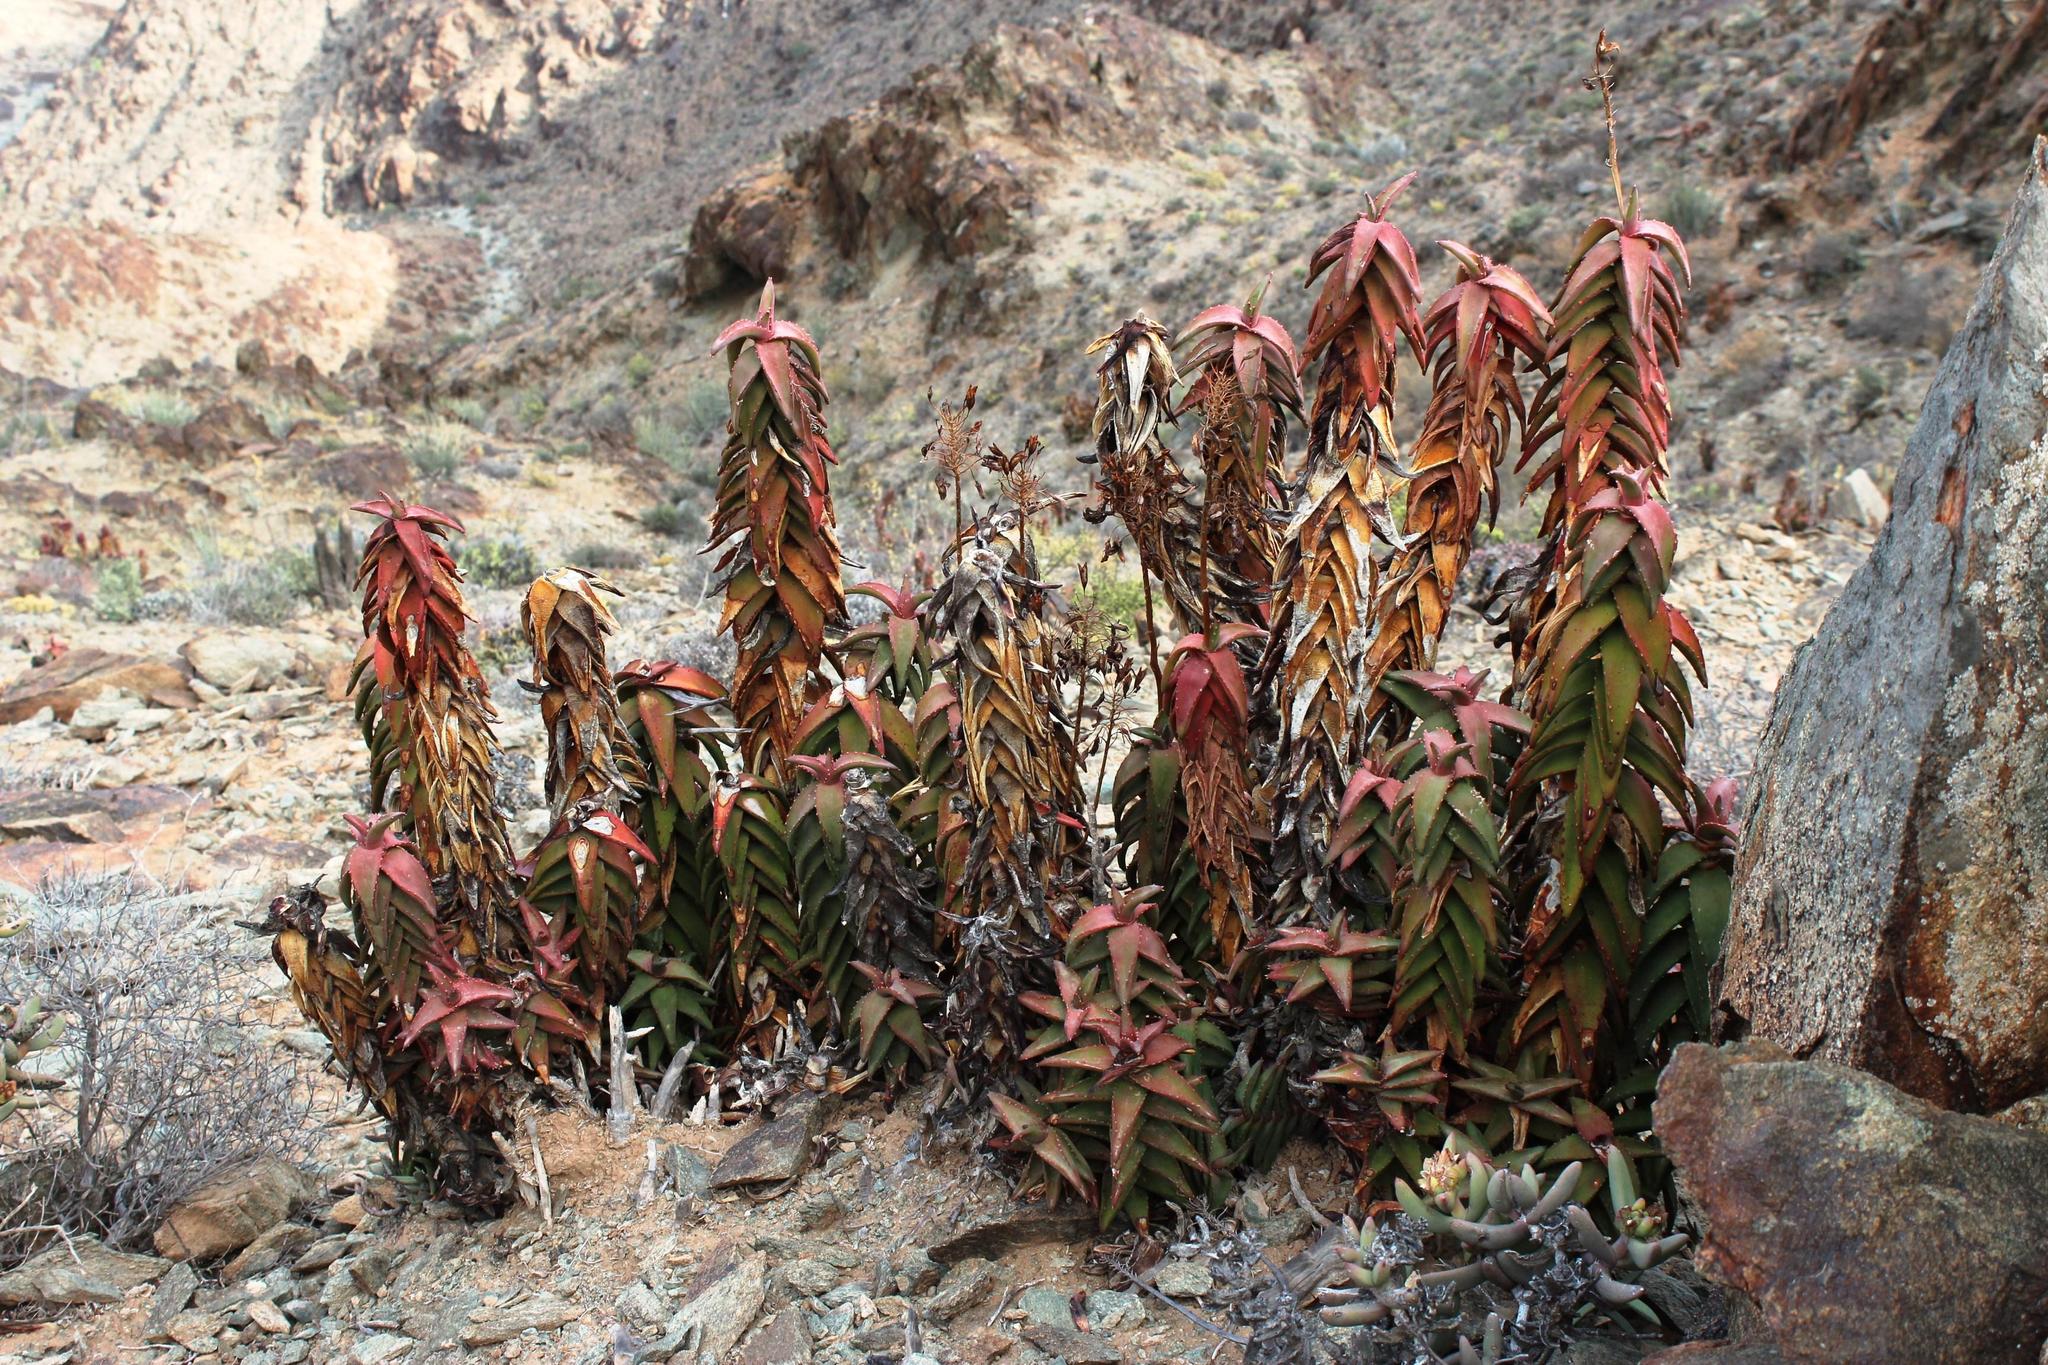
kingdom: Plantae
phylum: Tracheophyta
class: Liliopsida
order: Asparagales
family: Asphodelaceae
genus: Aloe
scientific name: Aloe pearsonii
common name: Pearson's aloe
